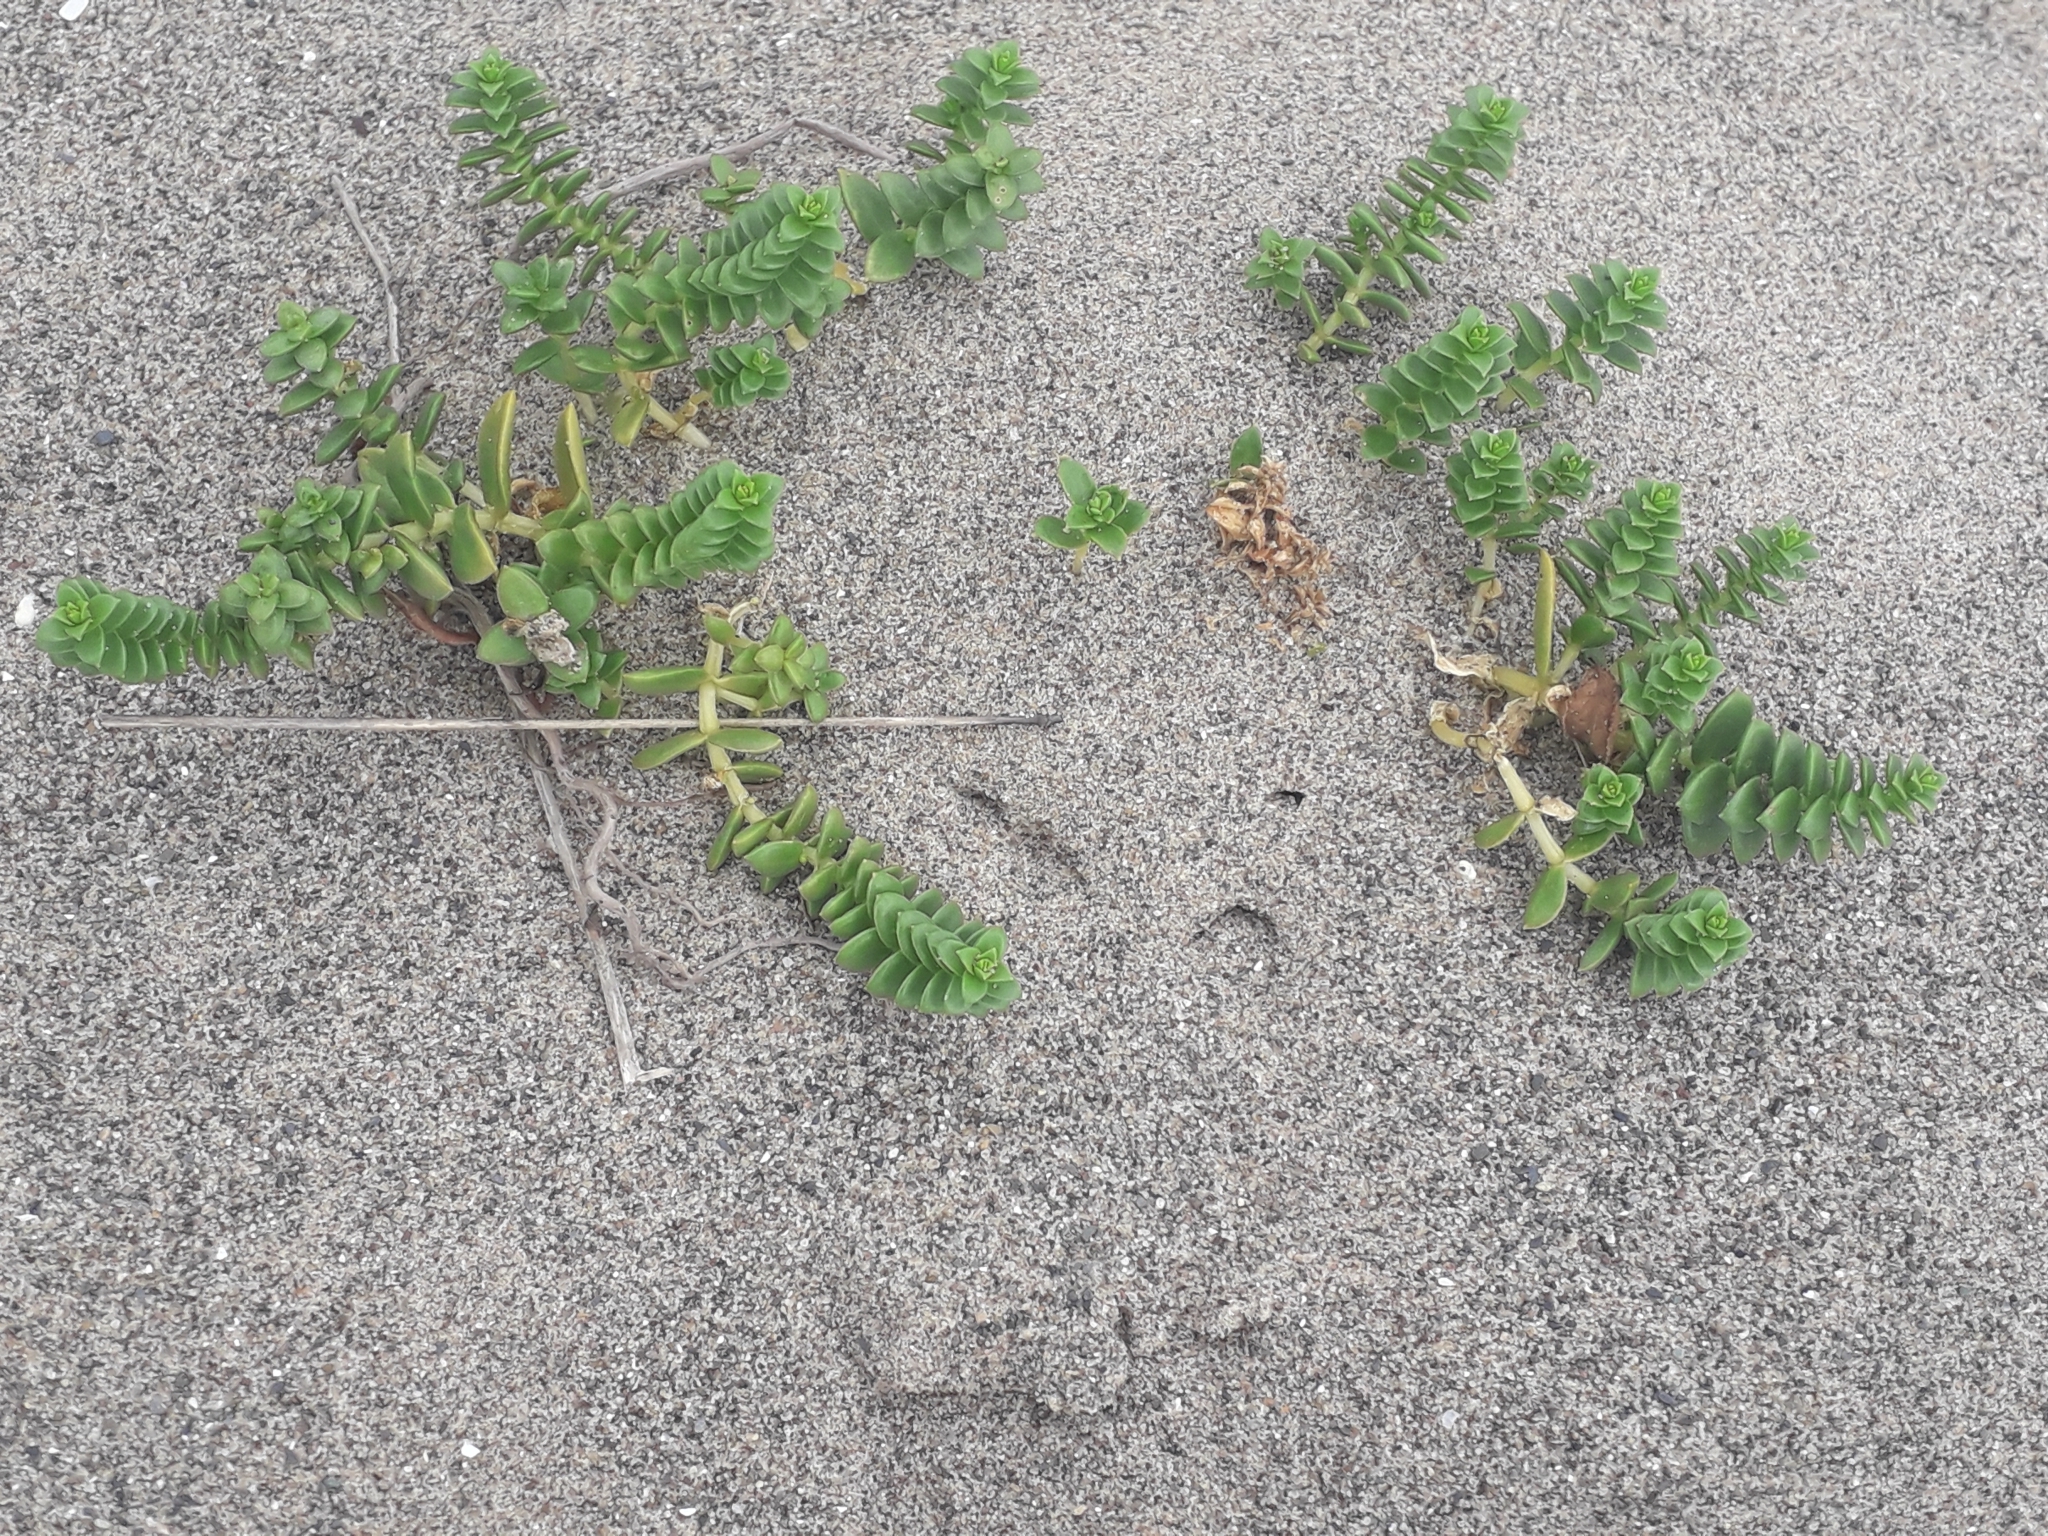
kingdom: Plantae
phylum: Tracheophyta
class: Magnoliopsida
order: Caryophyllales
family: Caryophyllaceae
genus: Honckenya
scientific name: Honckenya peploides
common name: Sea sandwort
